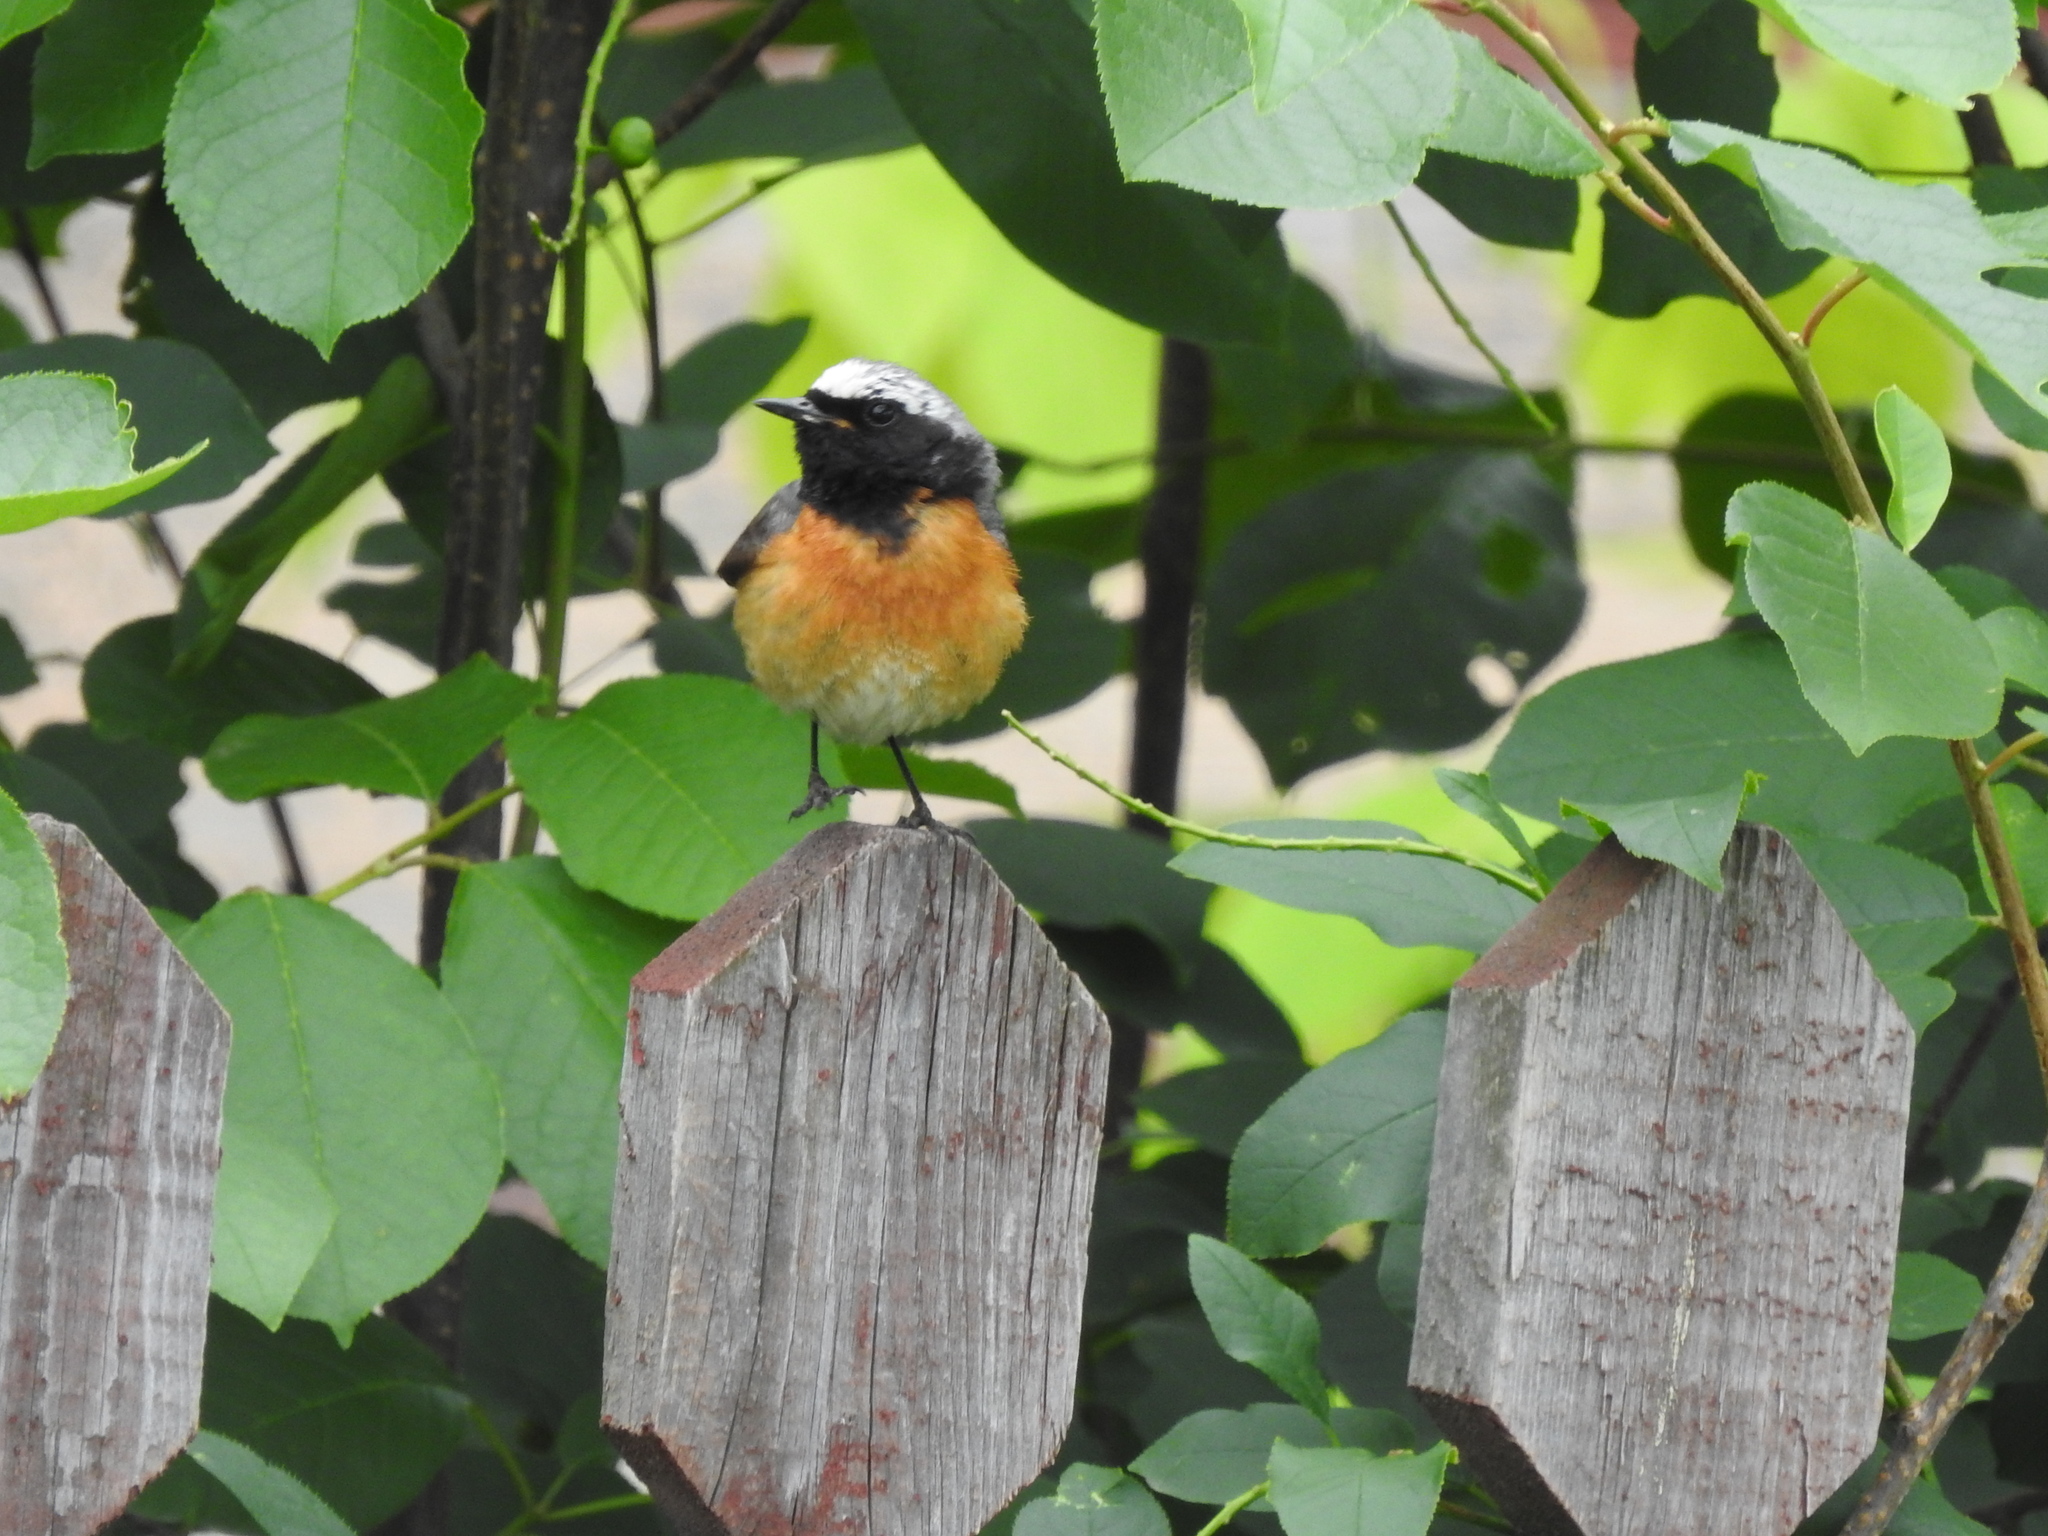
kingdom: Animalia
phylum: Chordata
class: Aves
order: Passeriformes
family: Muscicapidae
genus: Phoenicurus
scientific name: Phoenicurus phoenicurus
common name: Common redstart
